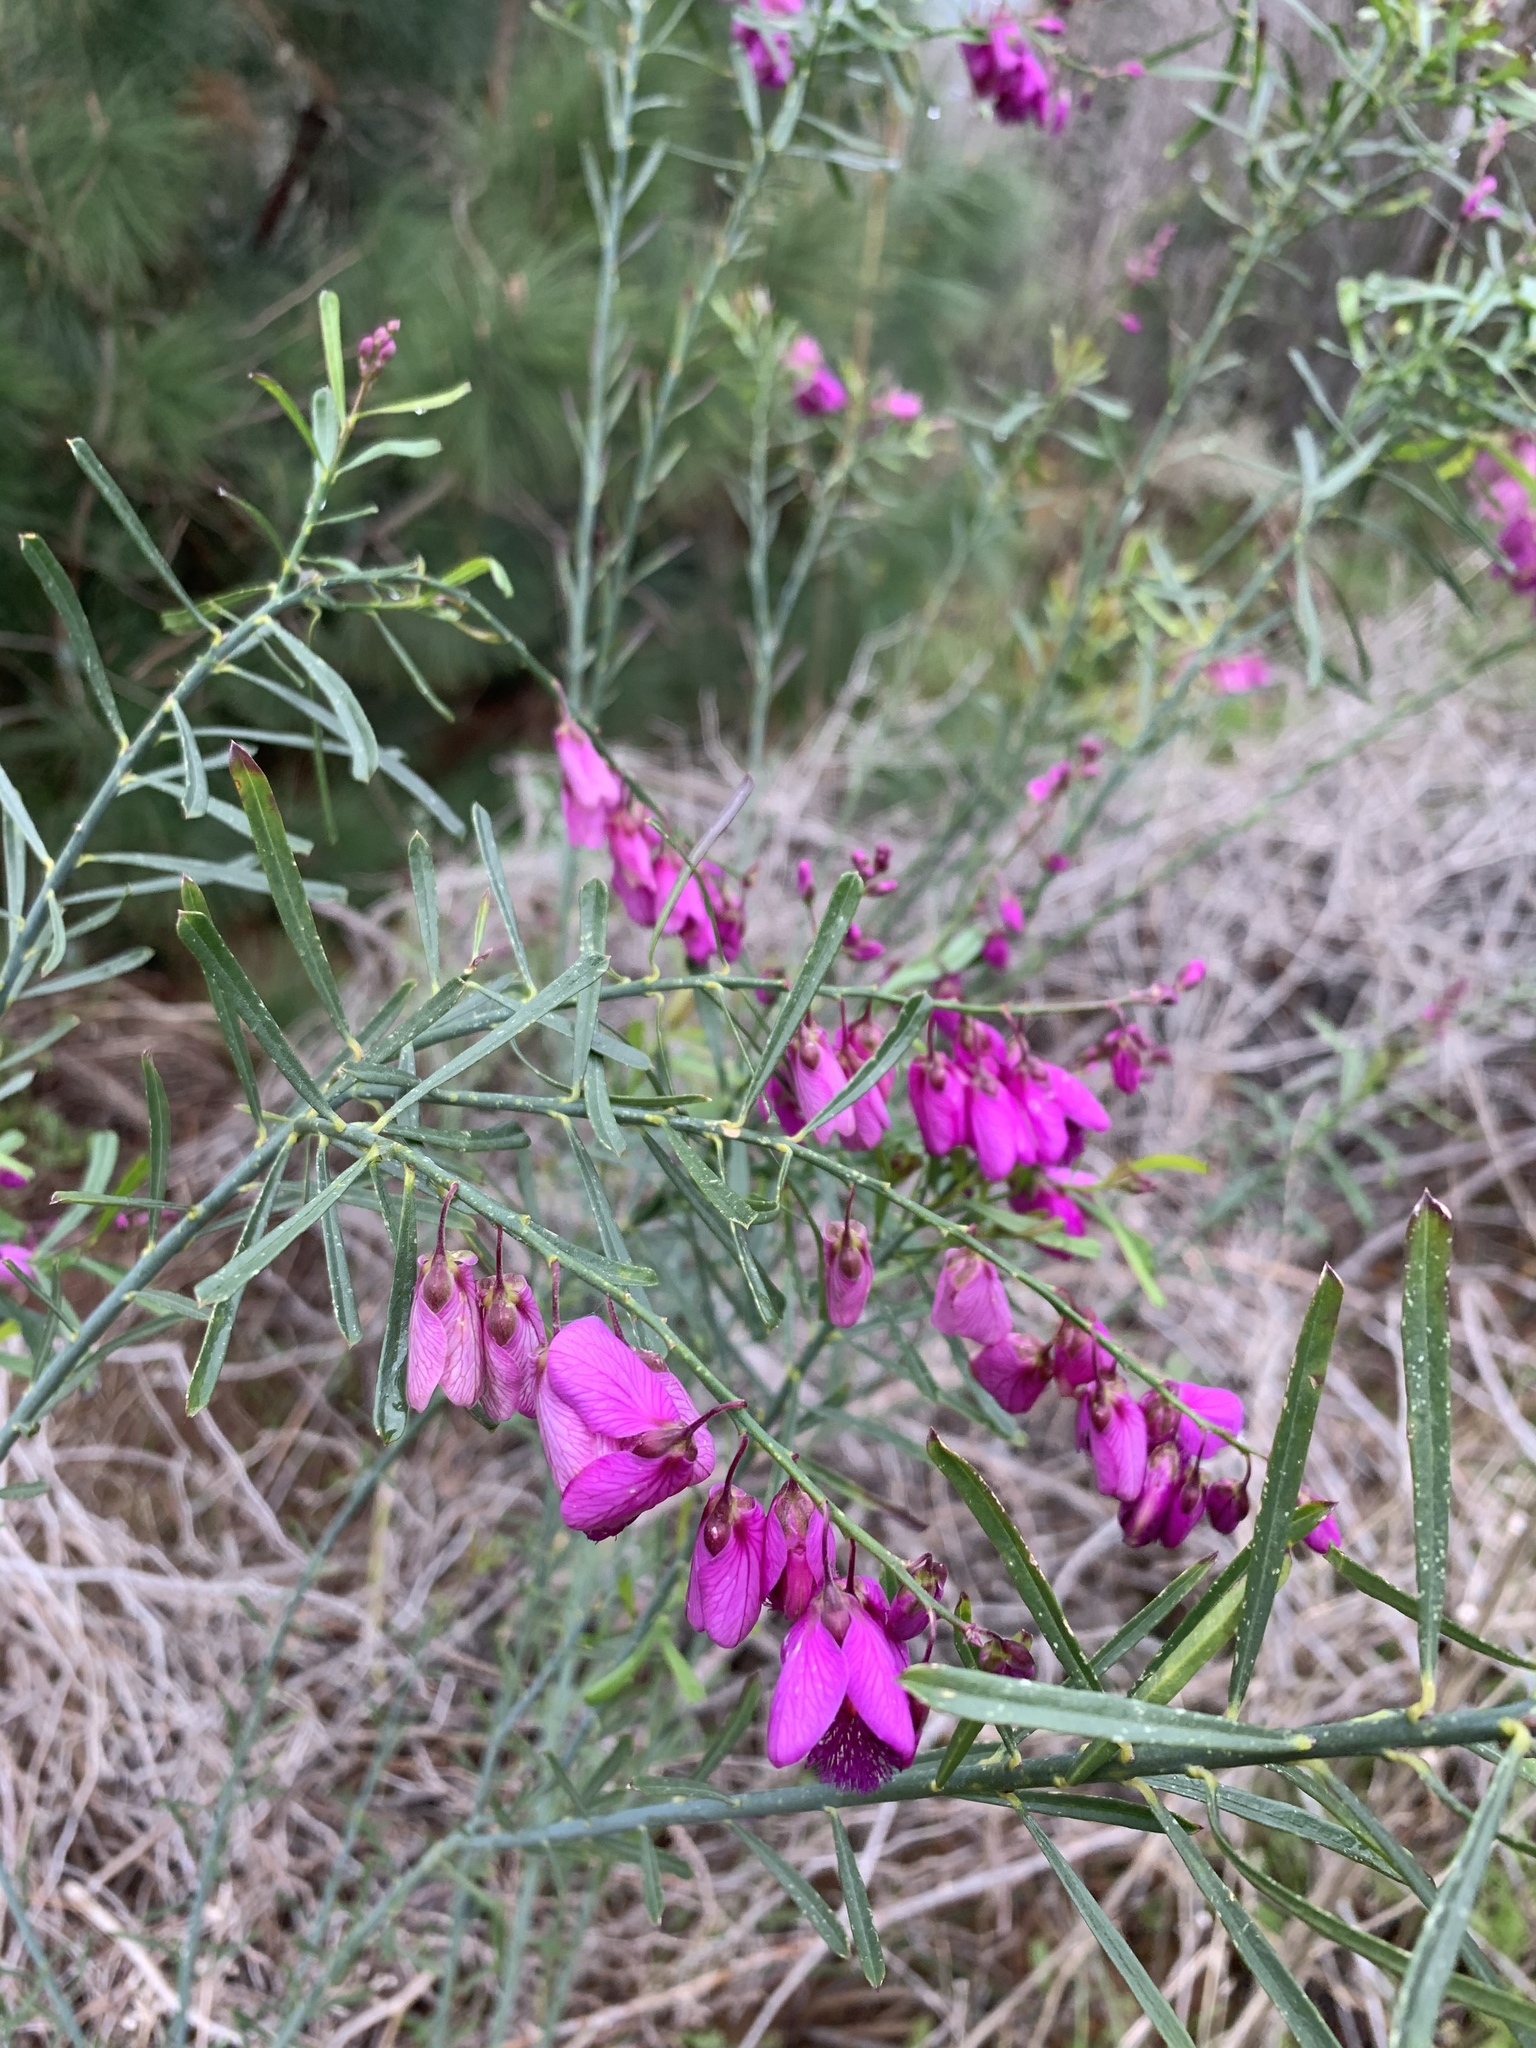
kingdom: Plantae
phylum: Tracheophyta
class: Magnoliopsida
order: Fabales
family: Polygalaceae
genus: Polygala
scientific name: Polygala virgata
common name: Milkwort
